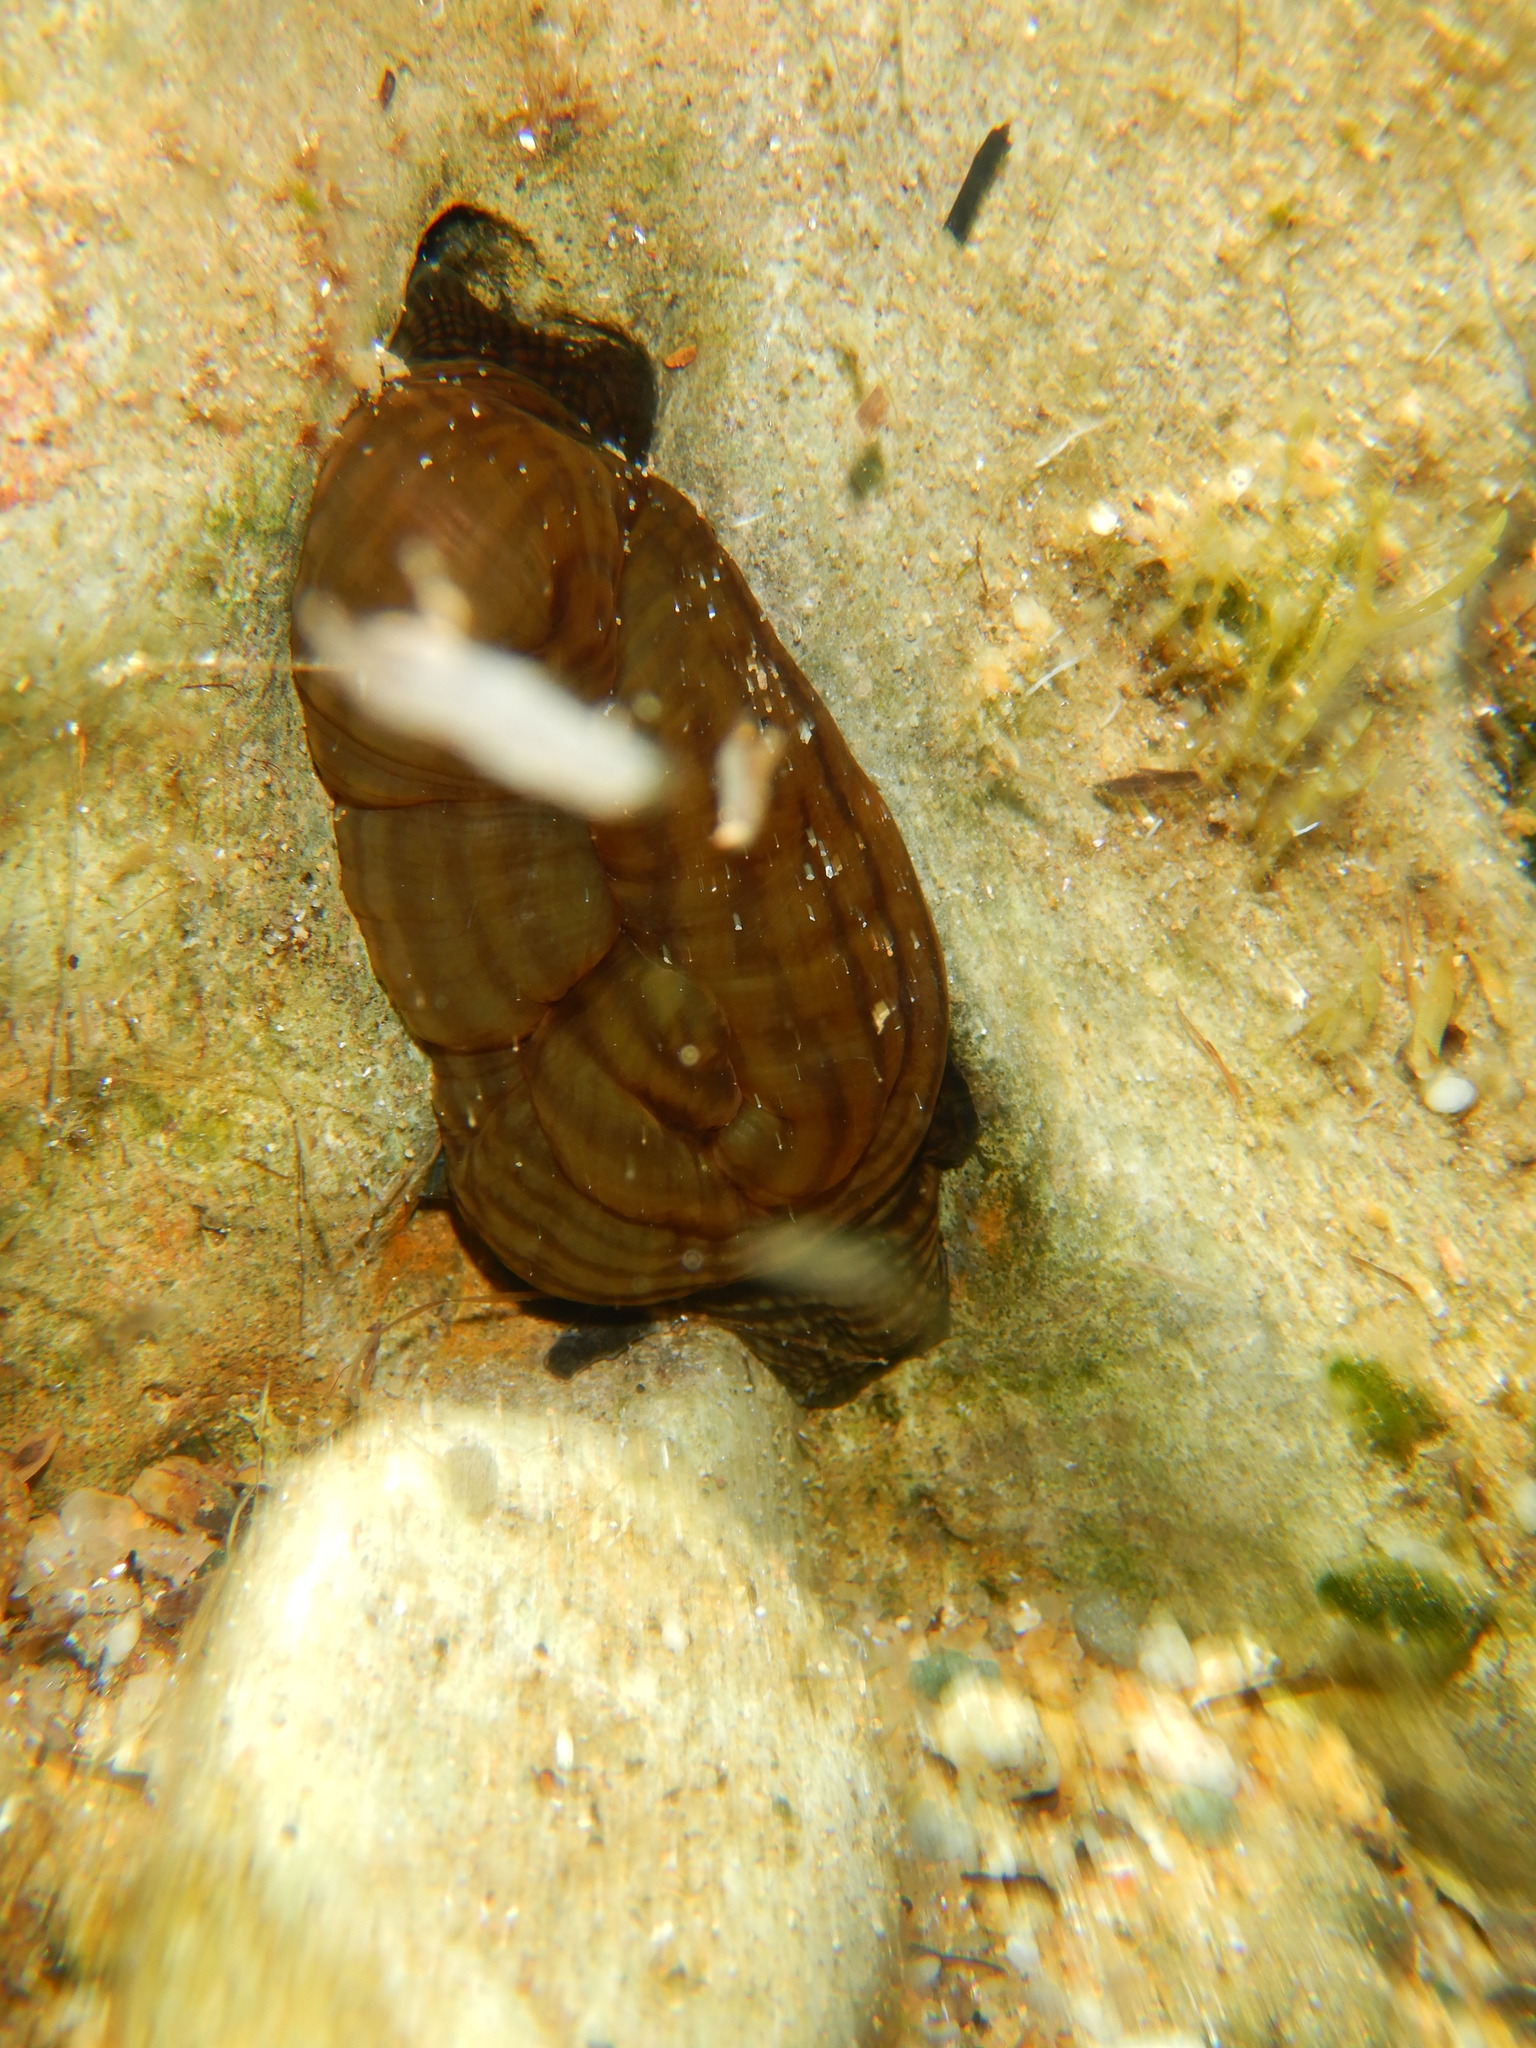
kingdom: Animalia
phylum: Cnidaria
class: Anthozoa
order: Actiniaria
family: Actiniidae
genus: Actinia
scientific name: Actinia cari
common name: Green sea anemone
